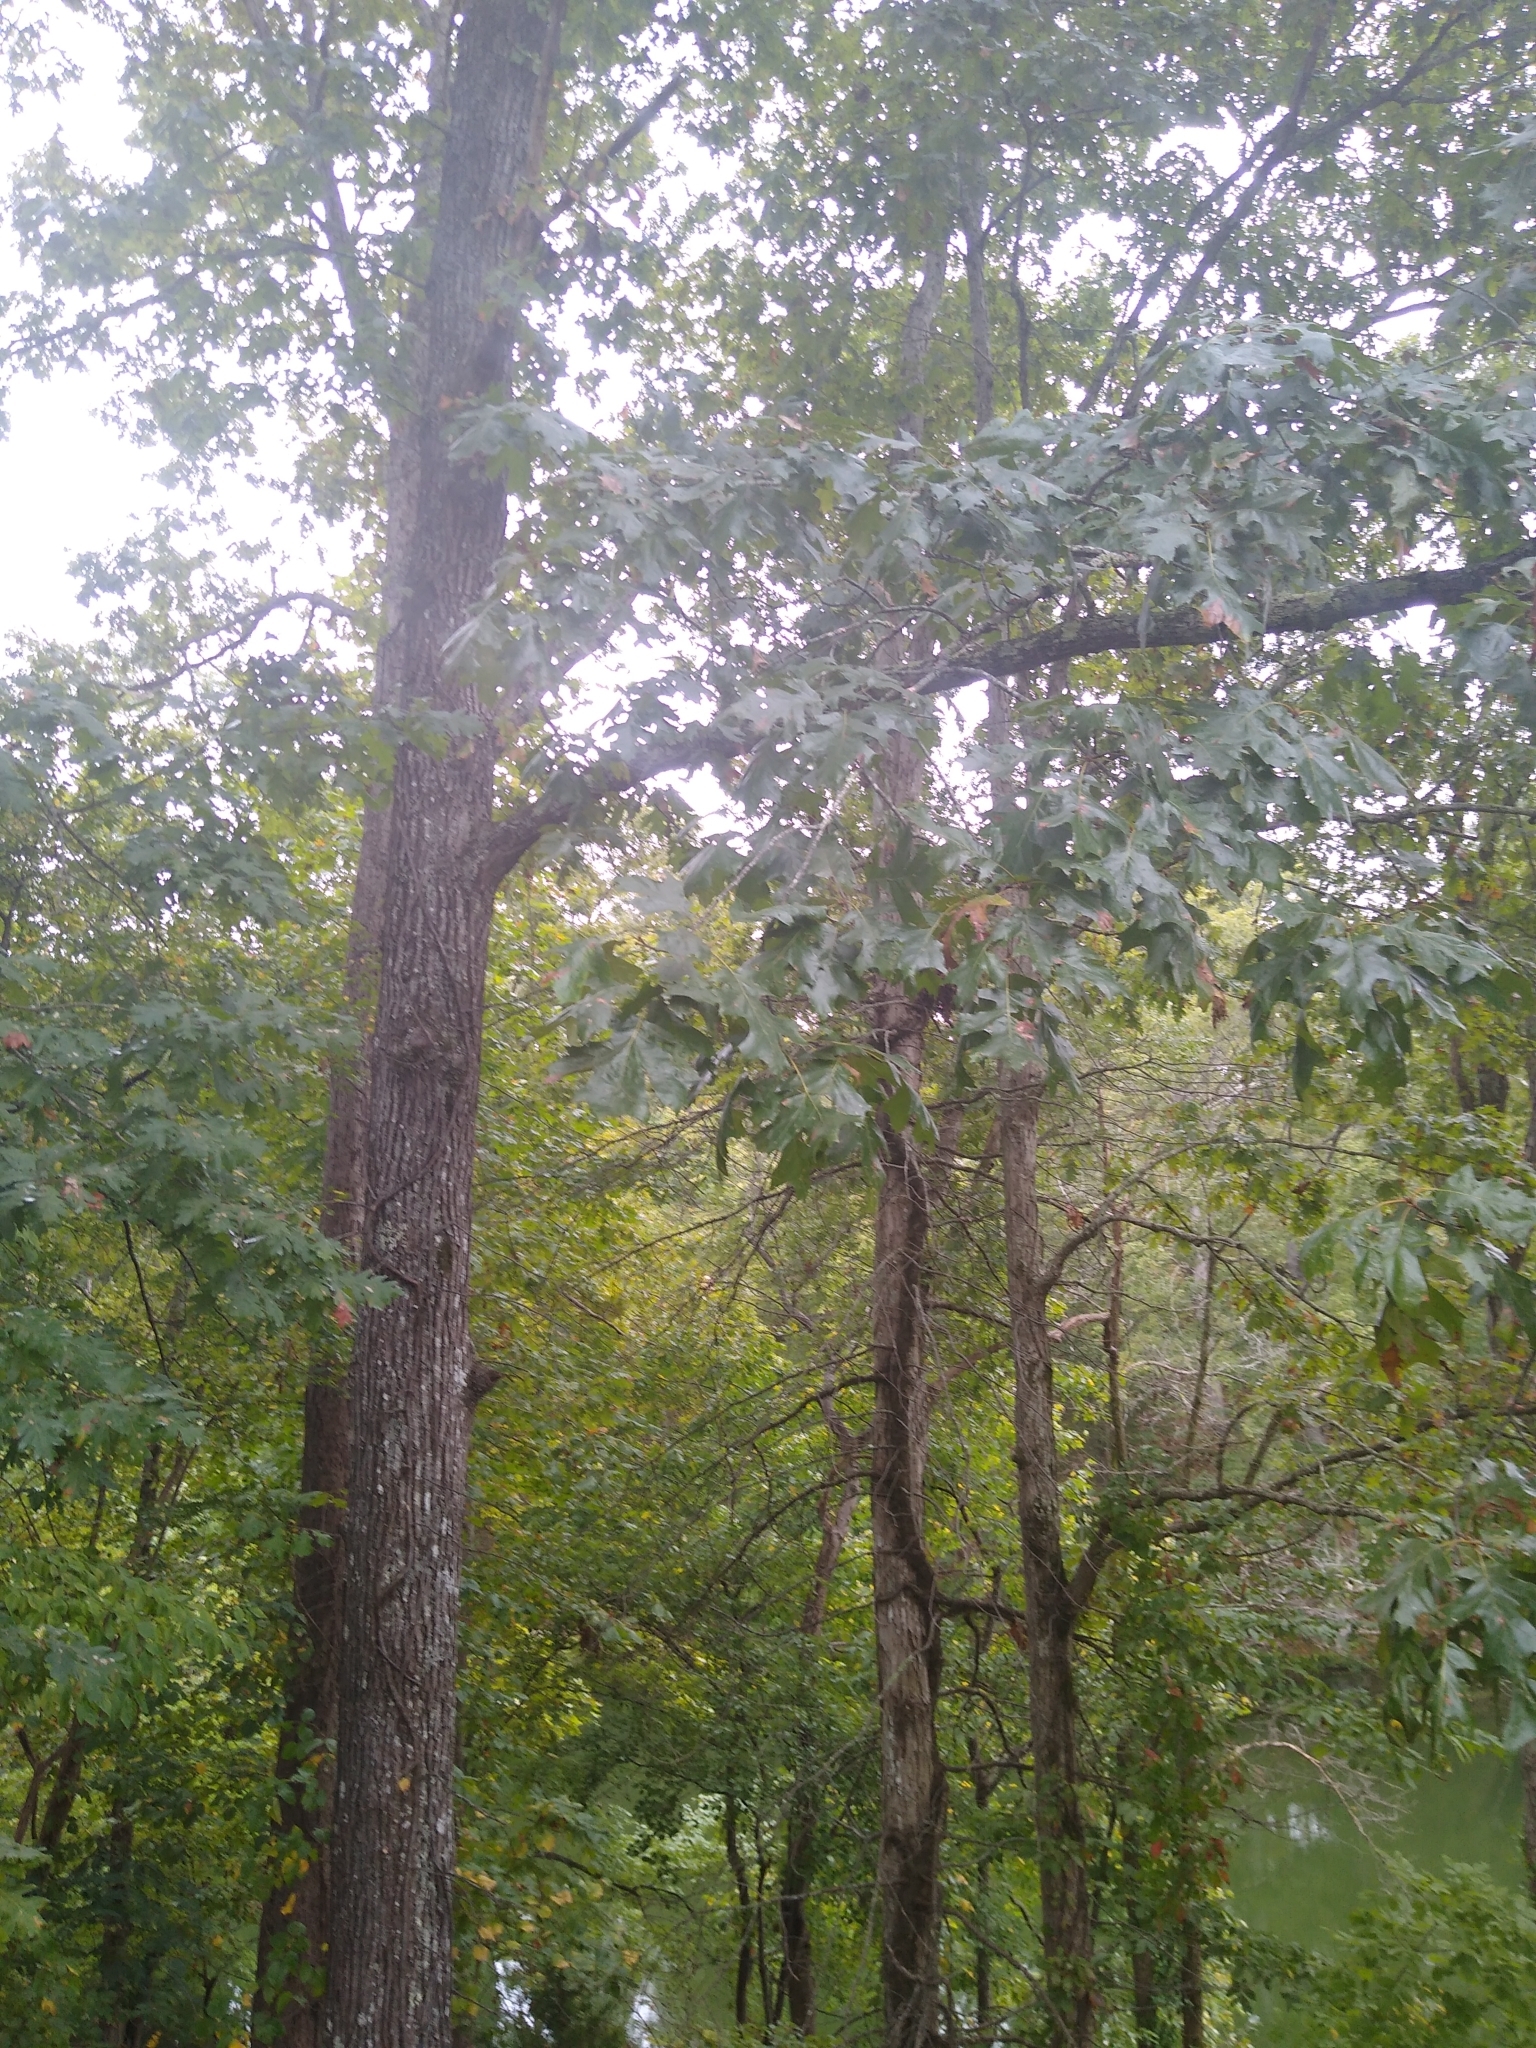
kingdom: Plantae
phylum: Tracheophyta
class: Magnoliopsida
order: Fagales
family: Fagaceae
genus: Quercus
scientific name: Quercus velutina
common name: Black oak
